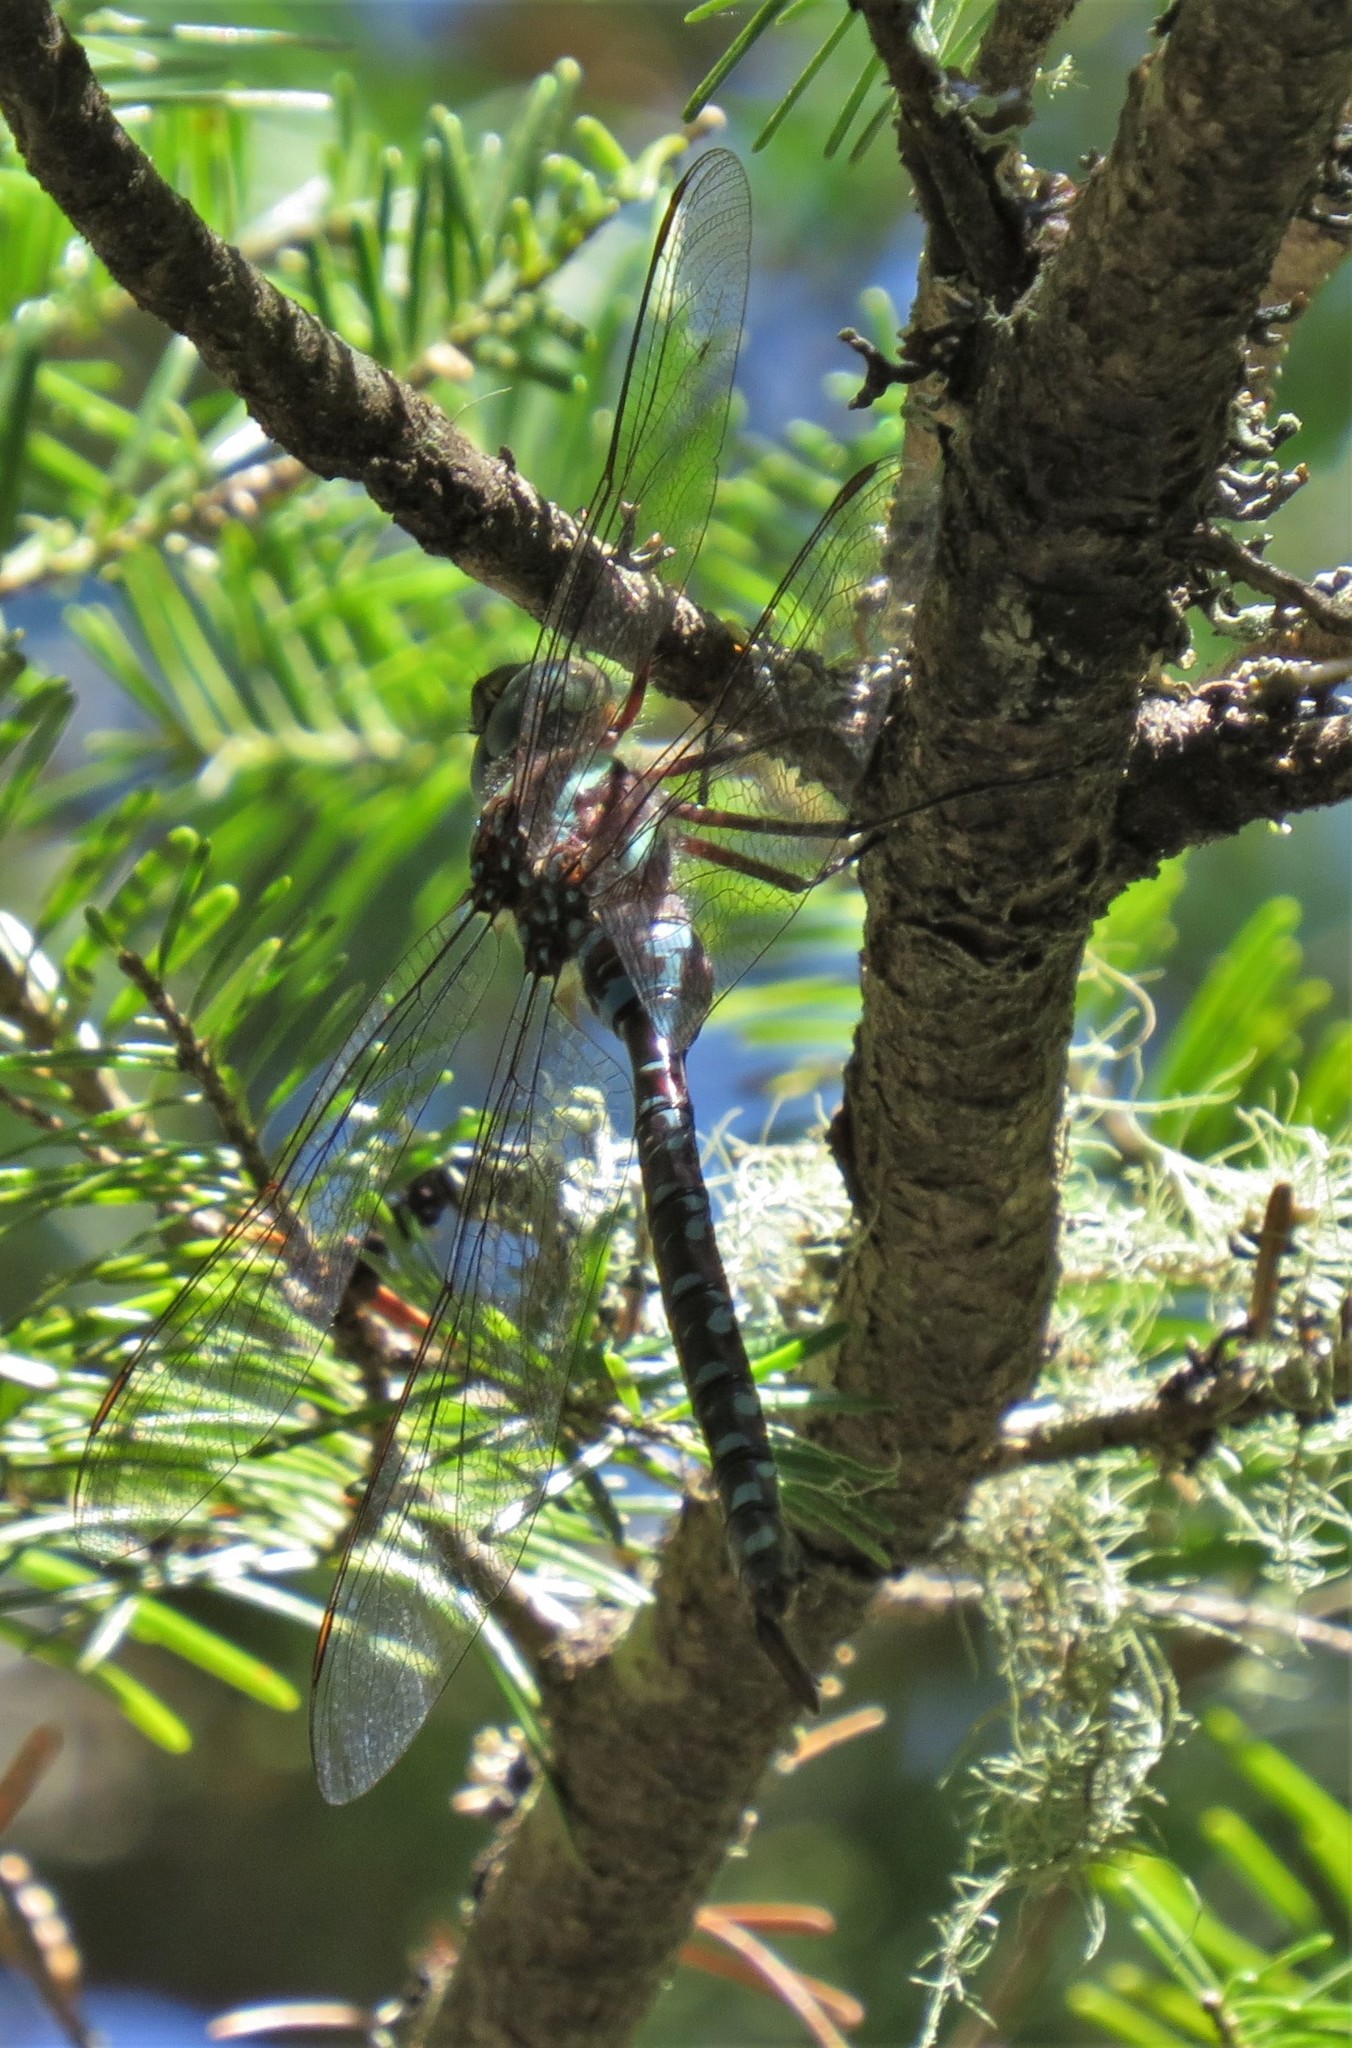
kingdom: Animalia
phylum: Arthropoda
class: Insecta
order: Odonata
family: Aeshnidae
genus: Aeshna
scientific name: Aeshna tuberculifera
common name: Aeschne à tubercules
